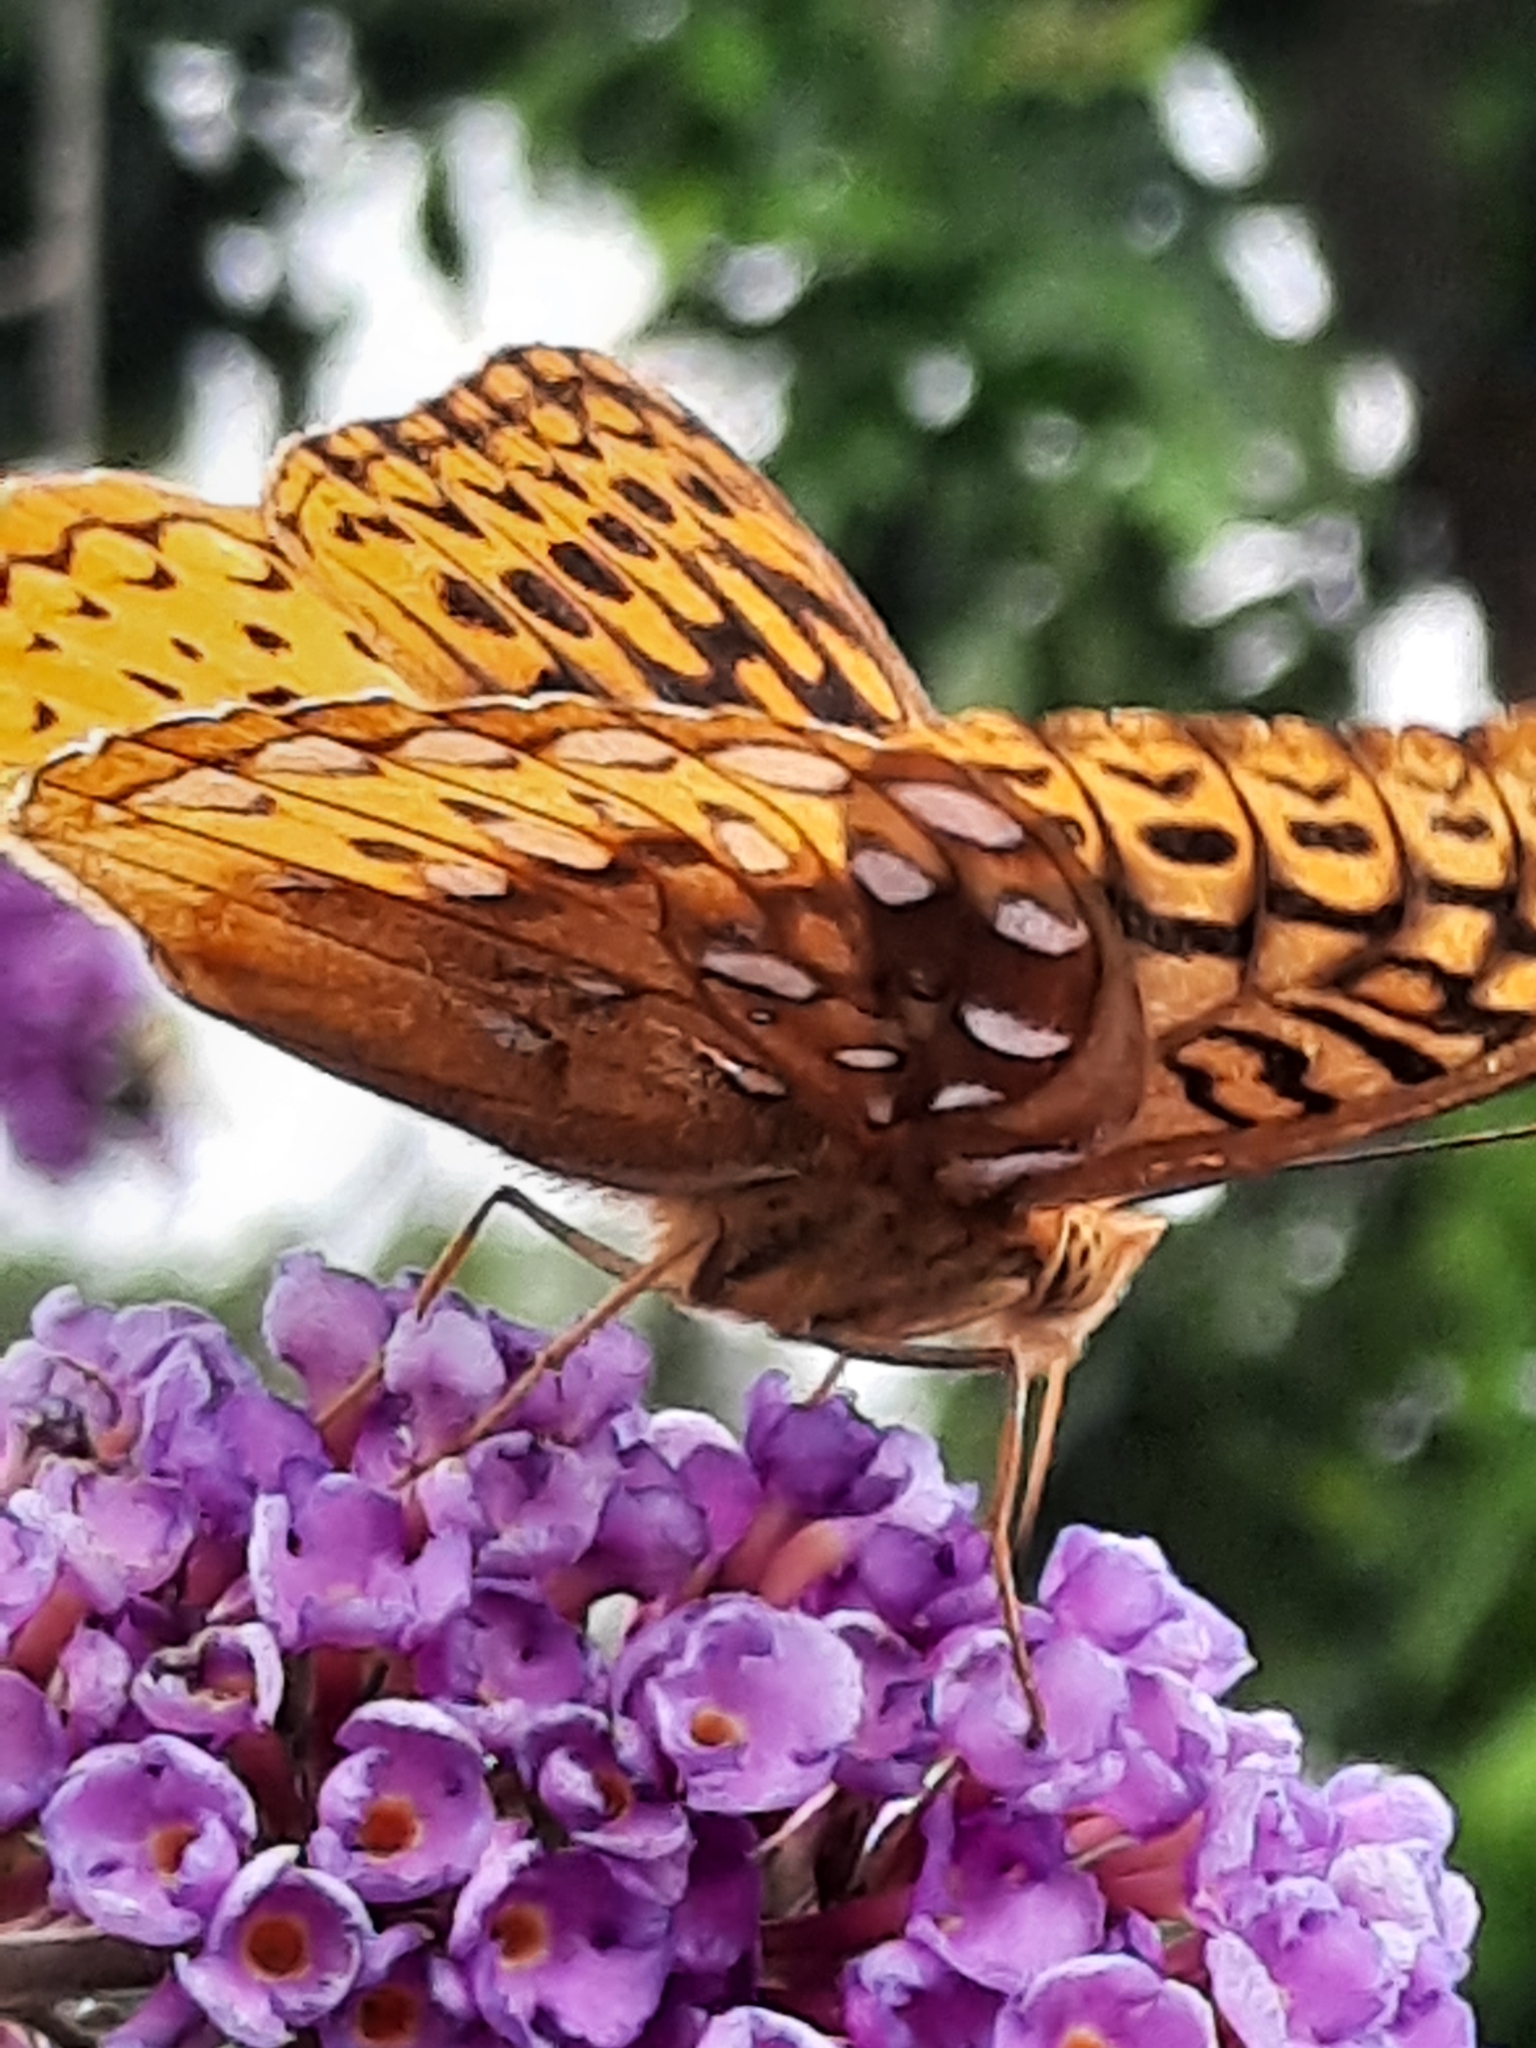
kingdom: Animalia
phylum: Arthropoda
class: Insecta
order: Lepidoptera
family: Nymphalidae
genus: Speyeria
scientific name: Speyeria cybele
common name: Great spangled fritillary
